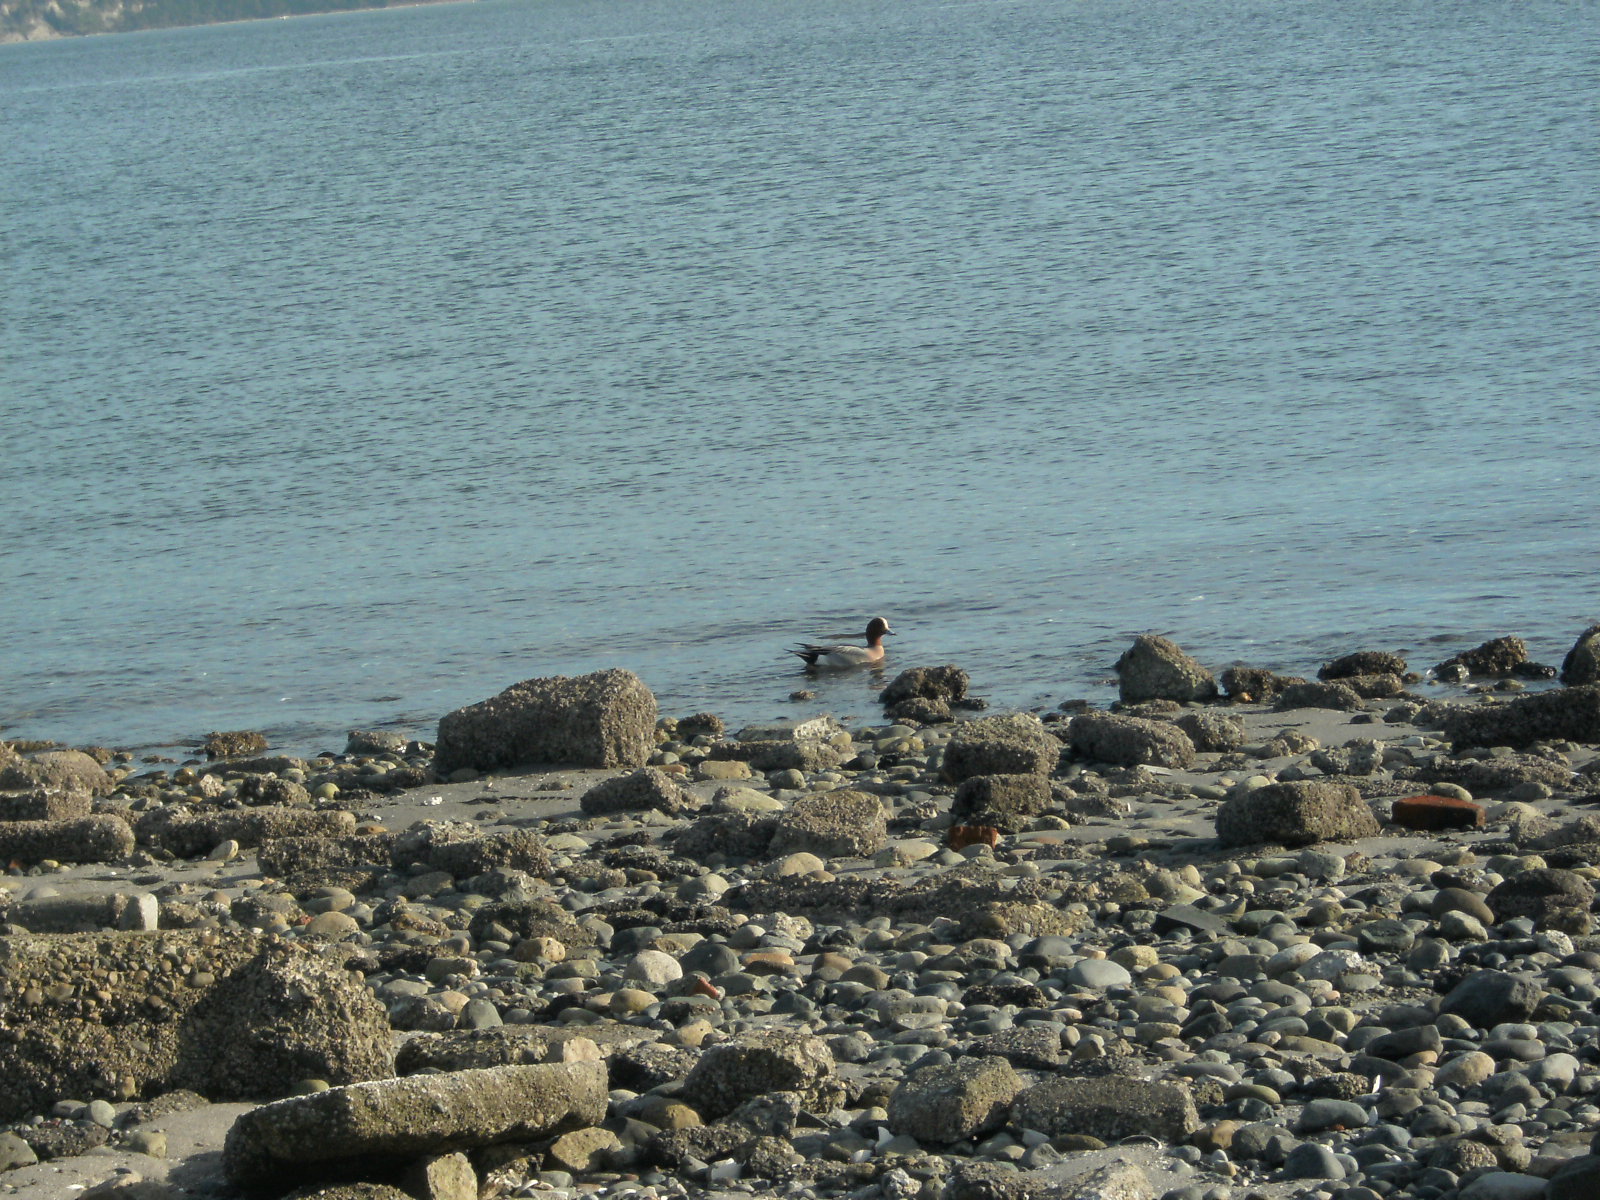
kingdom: Animalia
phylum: Chordata
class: Aves
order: Anseriformes
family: Anatidae
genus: Mareca
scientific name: Mareca americana
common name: American wigeon
